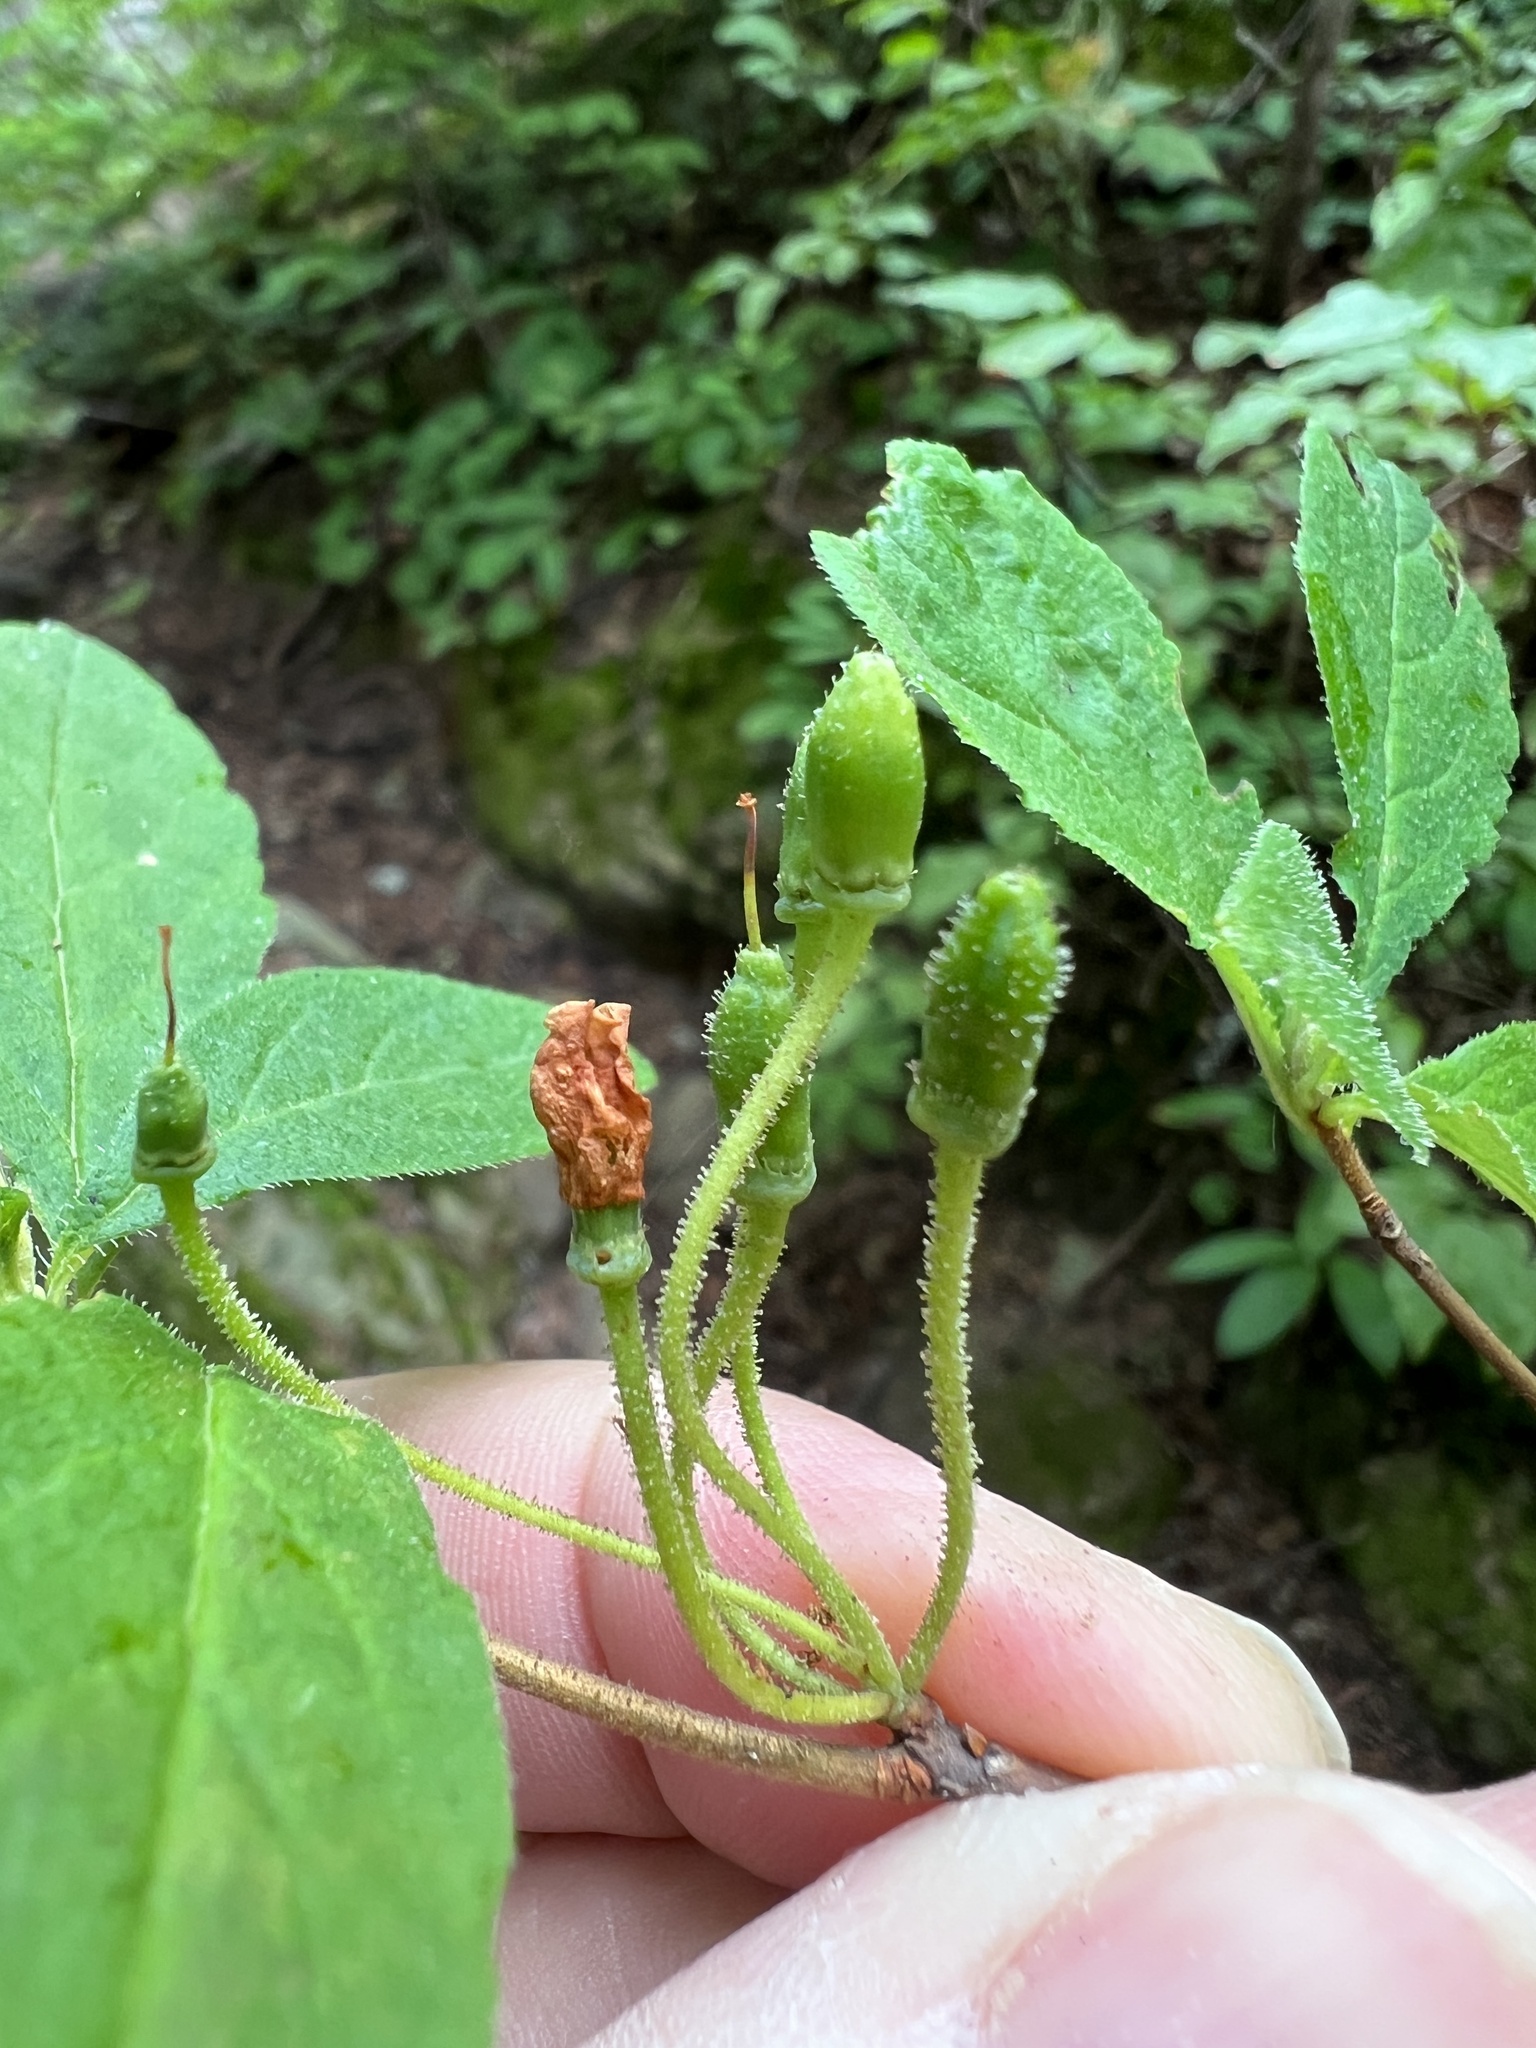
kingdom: Plantae
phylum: Tracheophyta
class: Magnoliopsida
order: Ericales
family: Ericaceae
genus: Rhododendron
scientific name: Rhododendron menziesii
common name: Pacific menziesia
